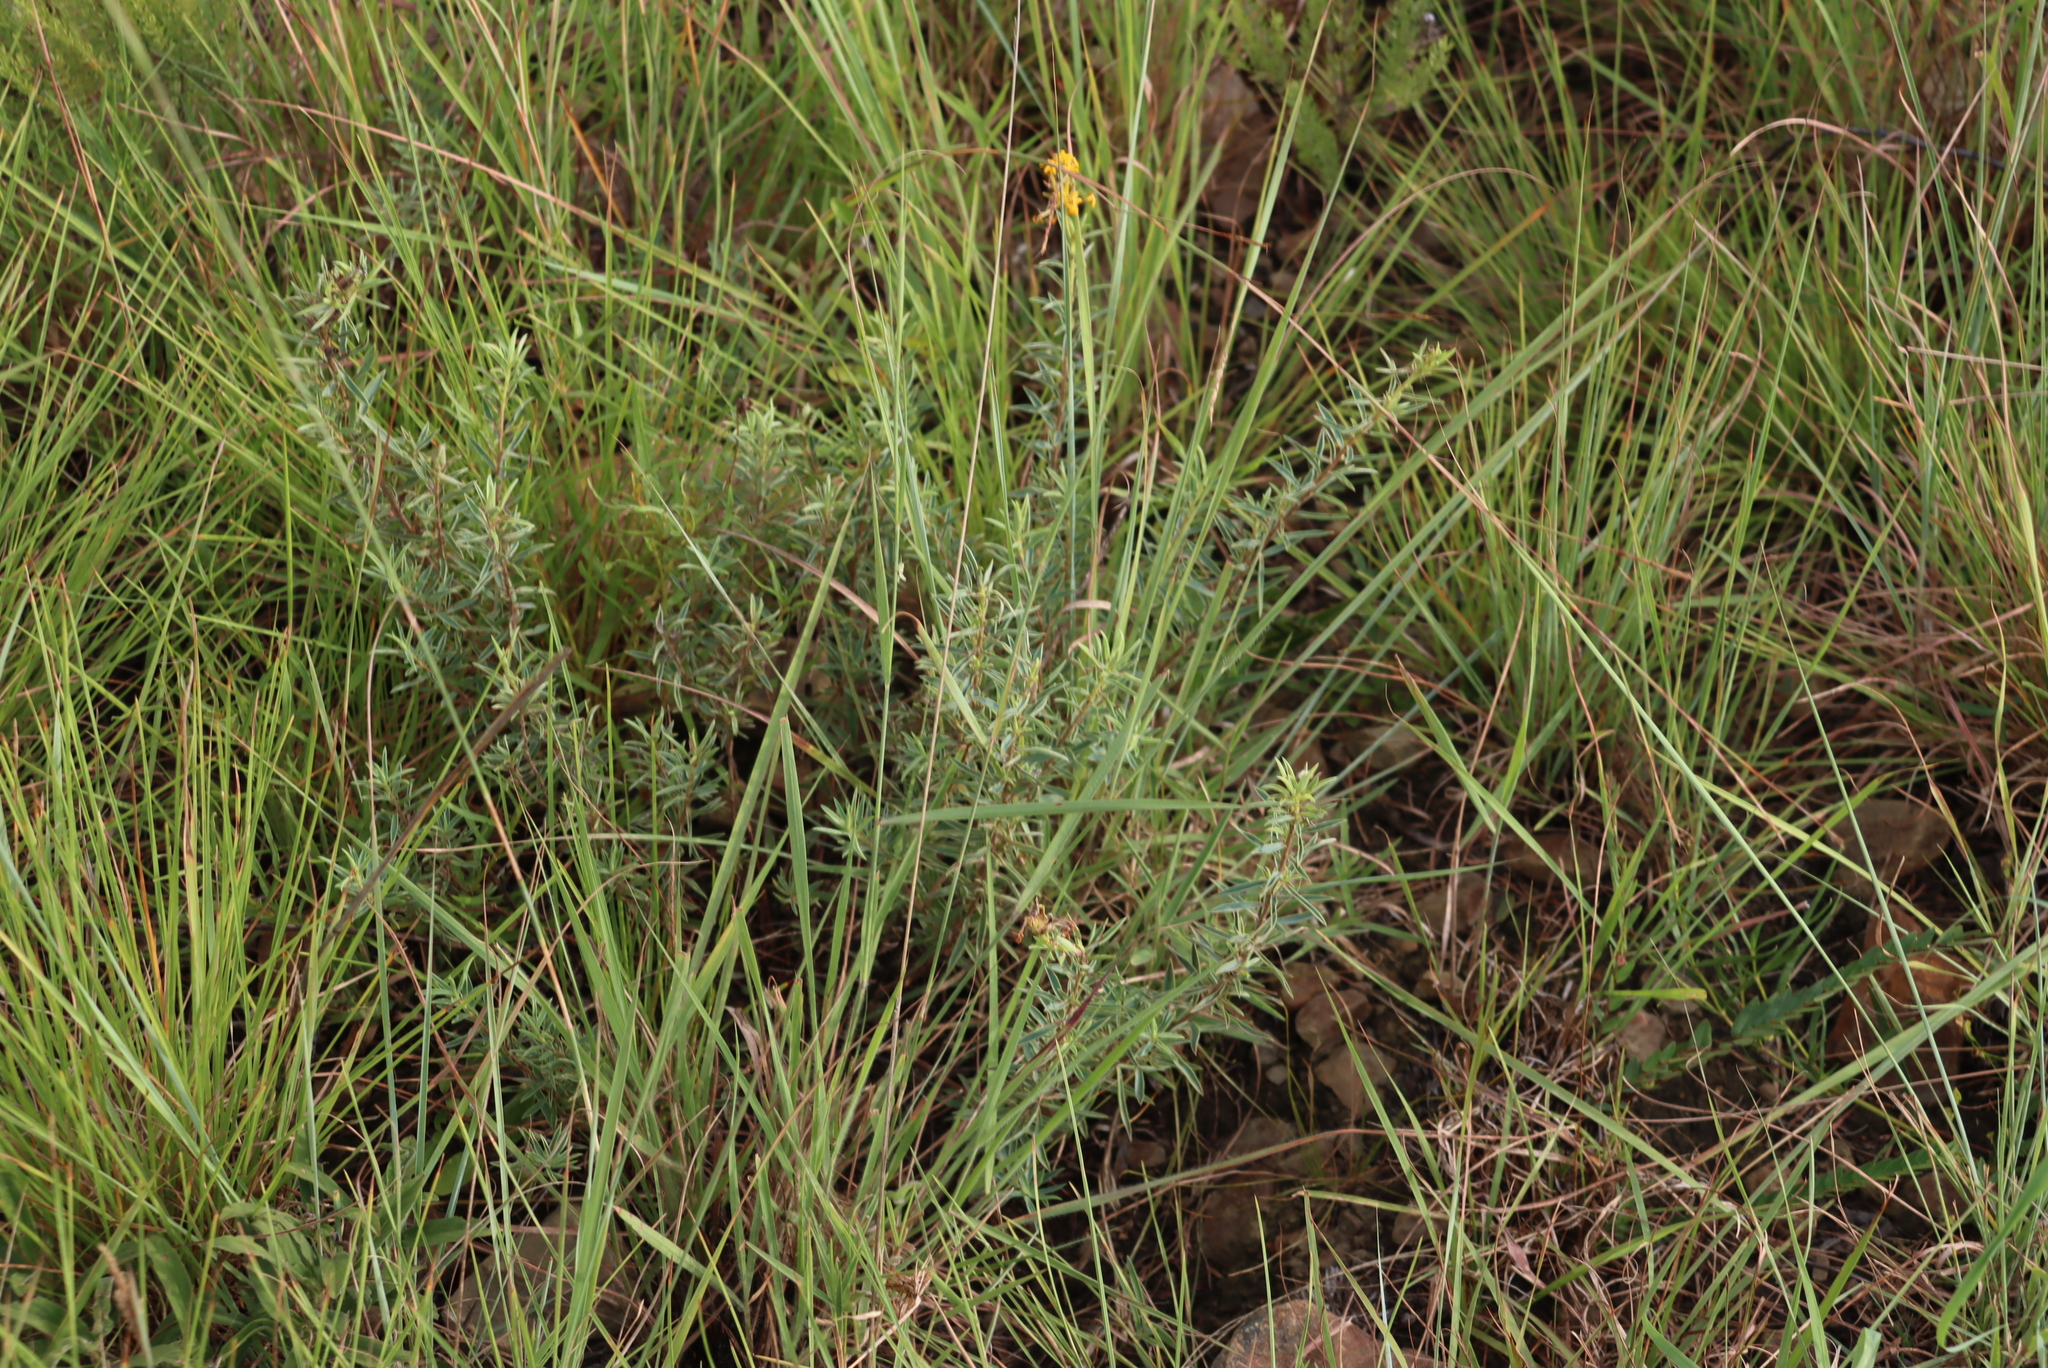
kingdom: Plantae
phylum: Tracheophyta
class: Magnoliopsida
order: Malvales
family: Thymelaeaceae
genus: Gnidia
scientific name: Gnidia capitata
